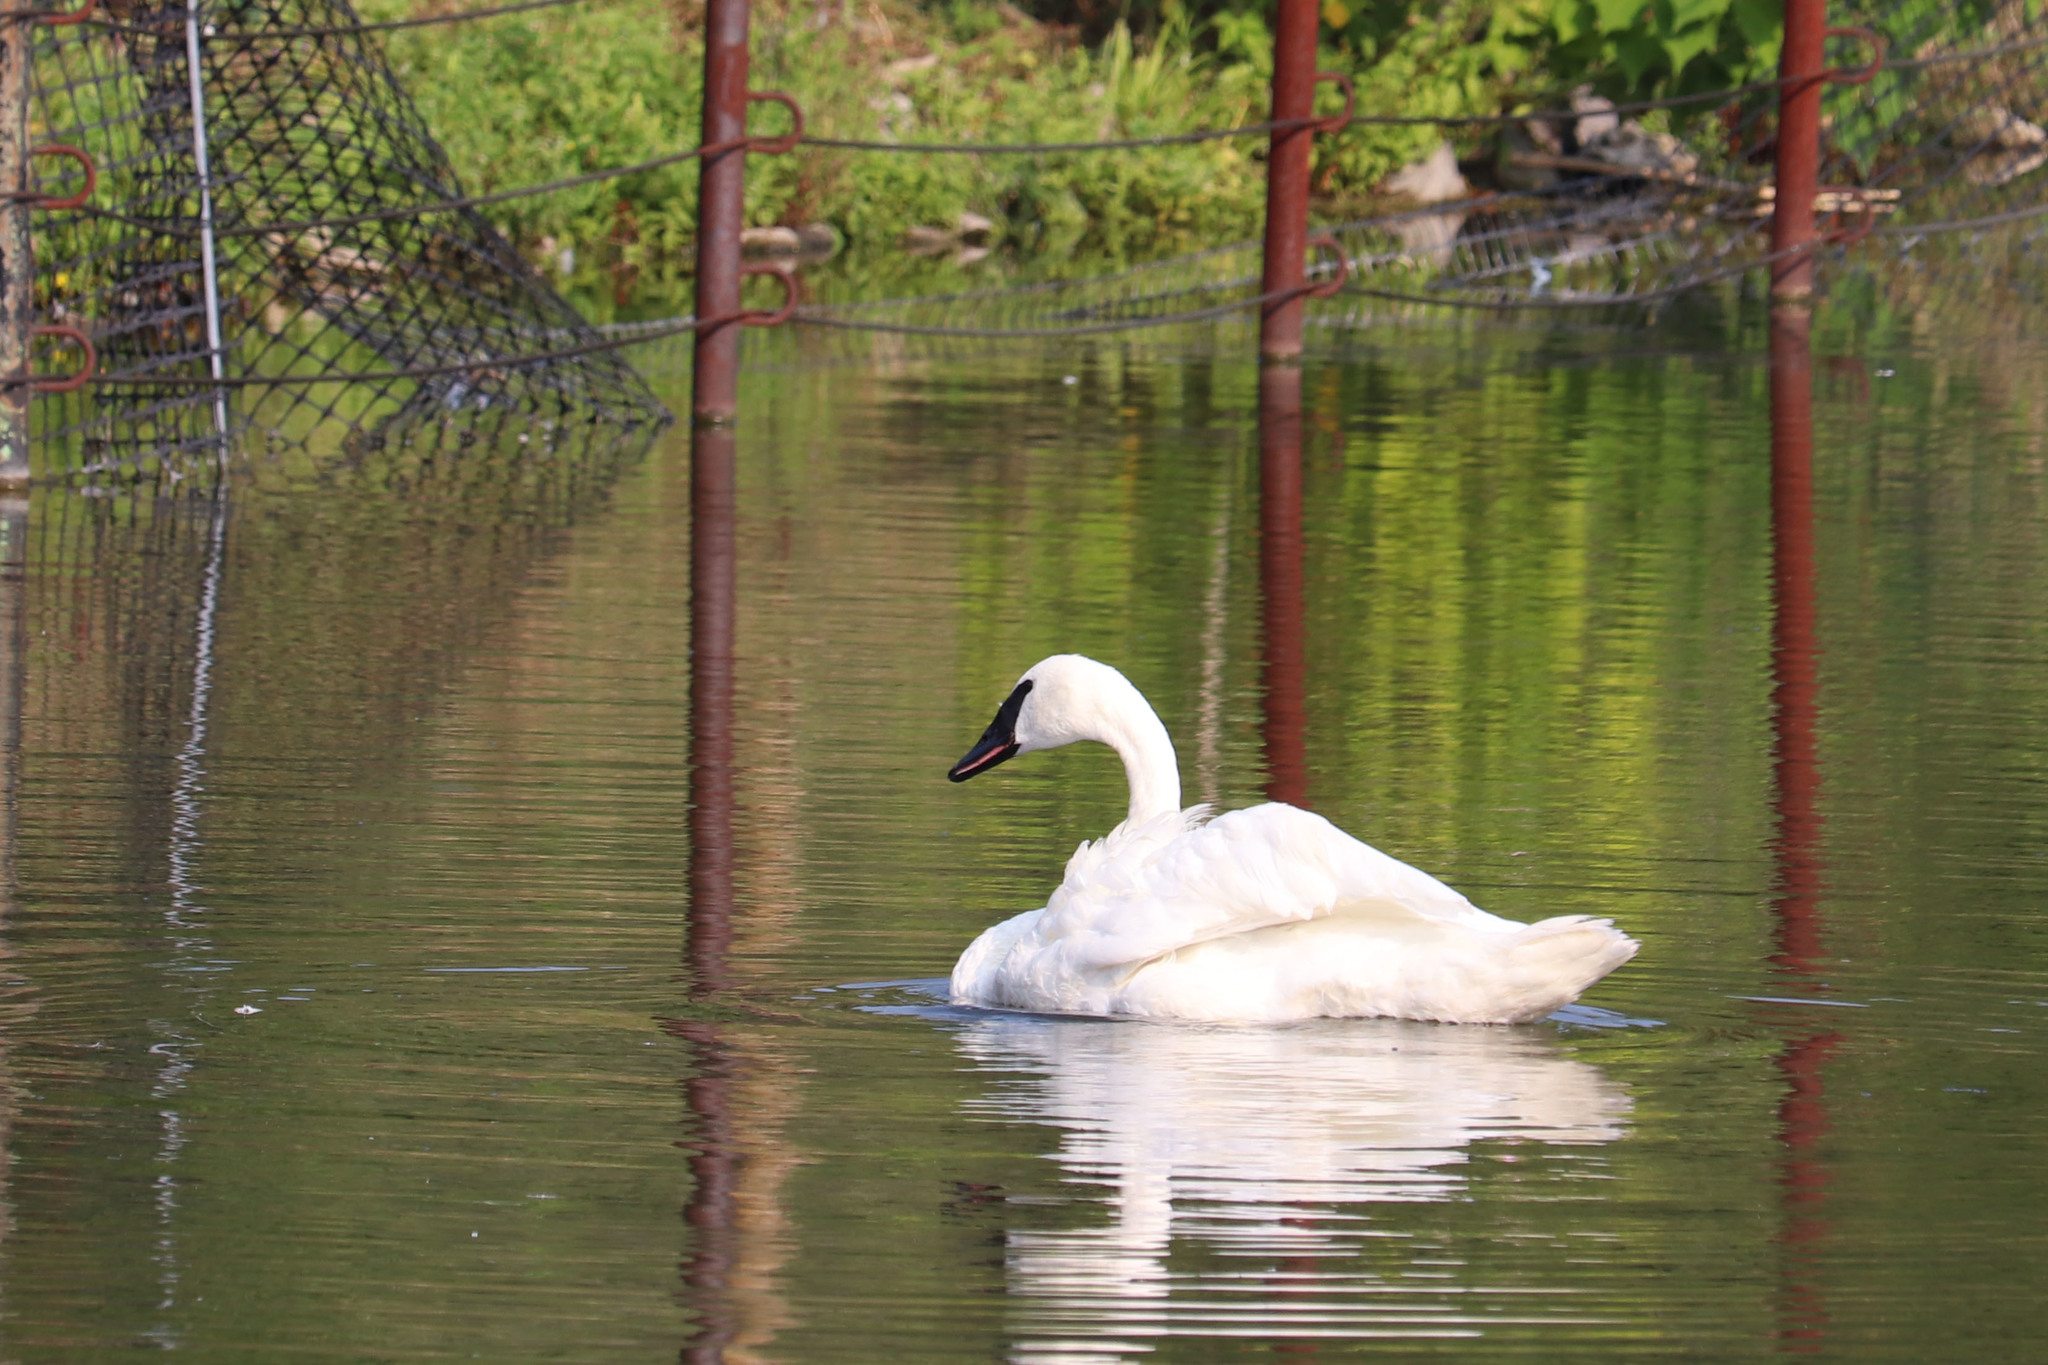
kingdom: Animalia
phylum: Chordata
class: Aves
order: Anseriformes
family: Anatidae
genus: Cygnus
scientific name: Cygnus buccinator
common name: Trumpeter swan
